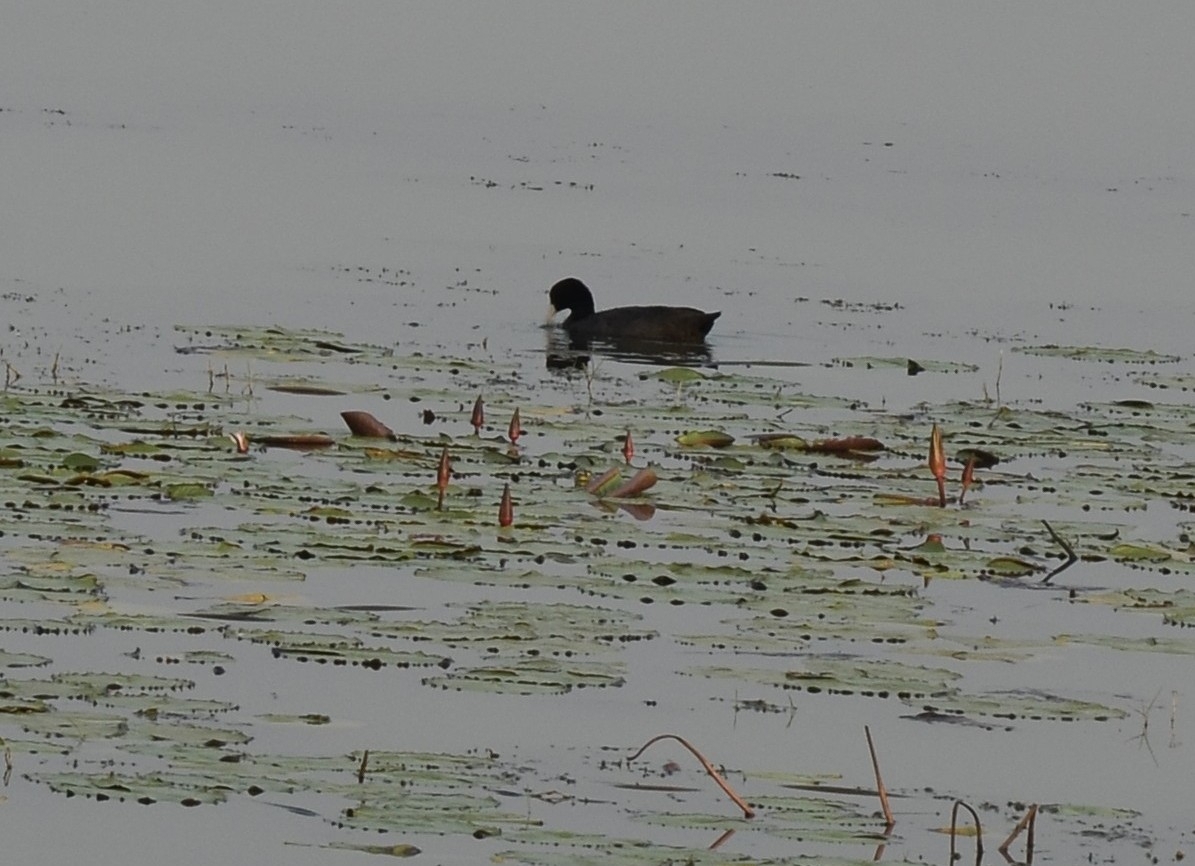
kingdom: Animalia
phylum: Chordata
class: Aves
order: Gruiformes
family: Rallidae
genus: Fulica
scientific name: Fulica atra
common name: Eurasian coot
